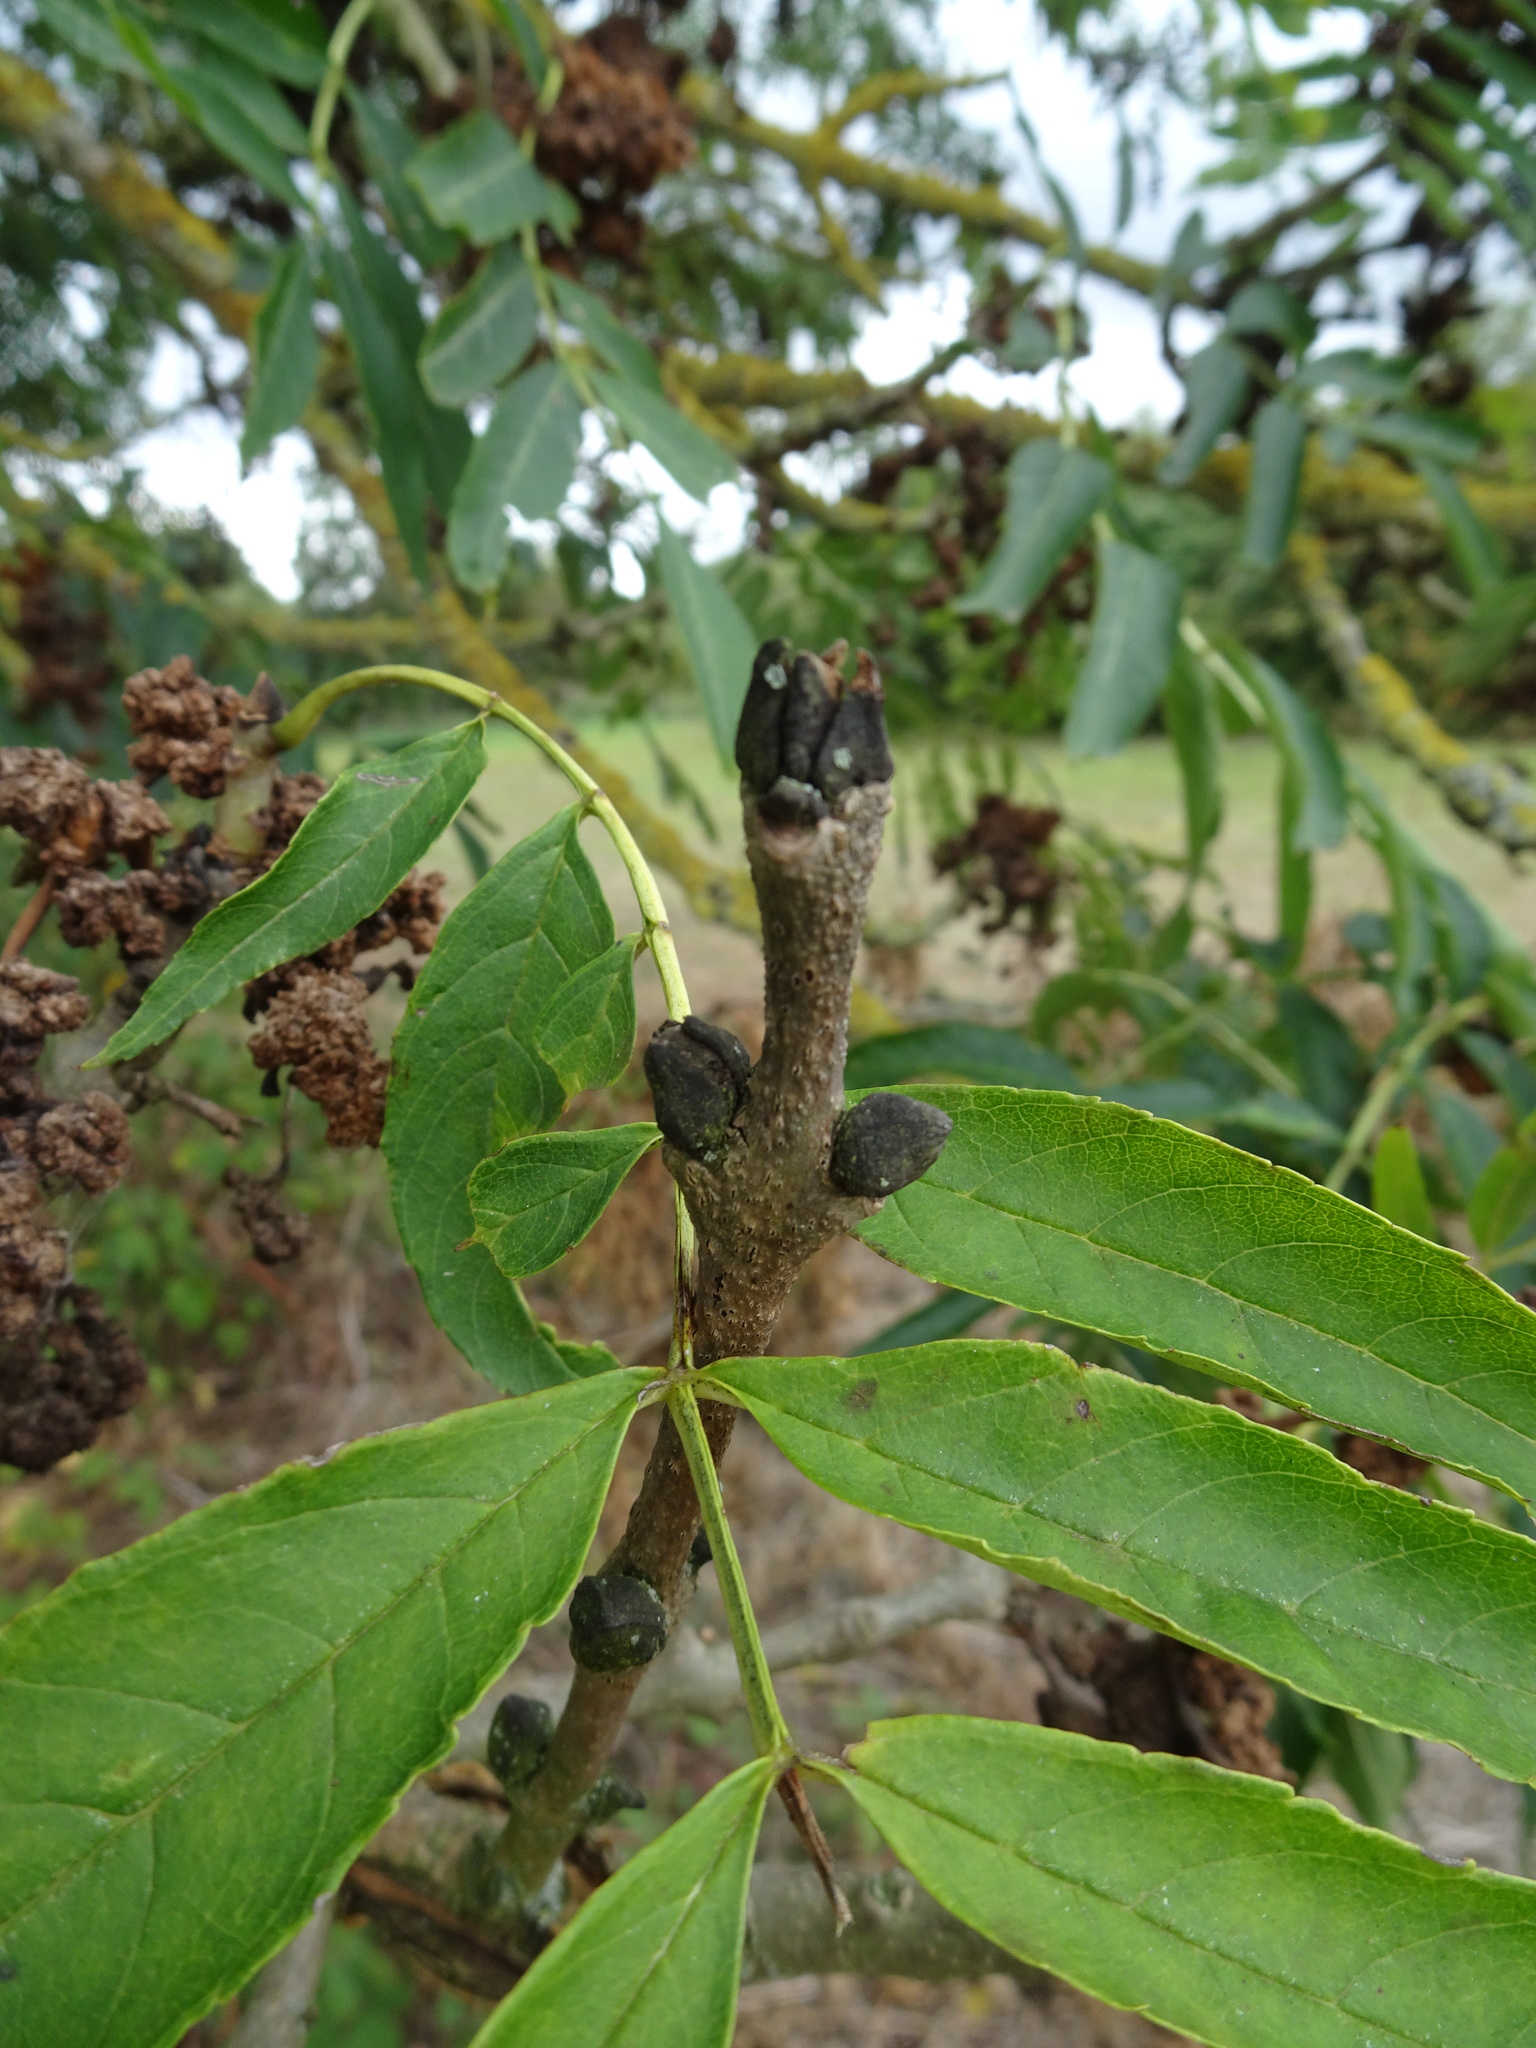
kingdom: Plantae
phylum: Tracheophyta
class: Magnoliopsida
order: Lamiales
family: Oleaceae
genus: Fraxinus
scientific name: Fraxinus excelsior
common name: European ash
